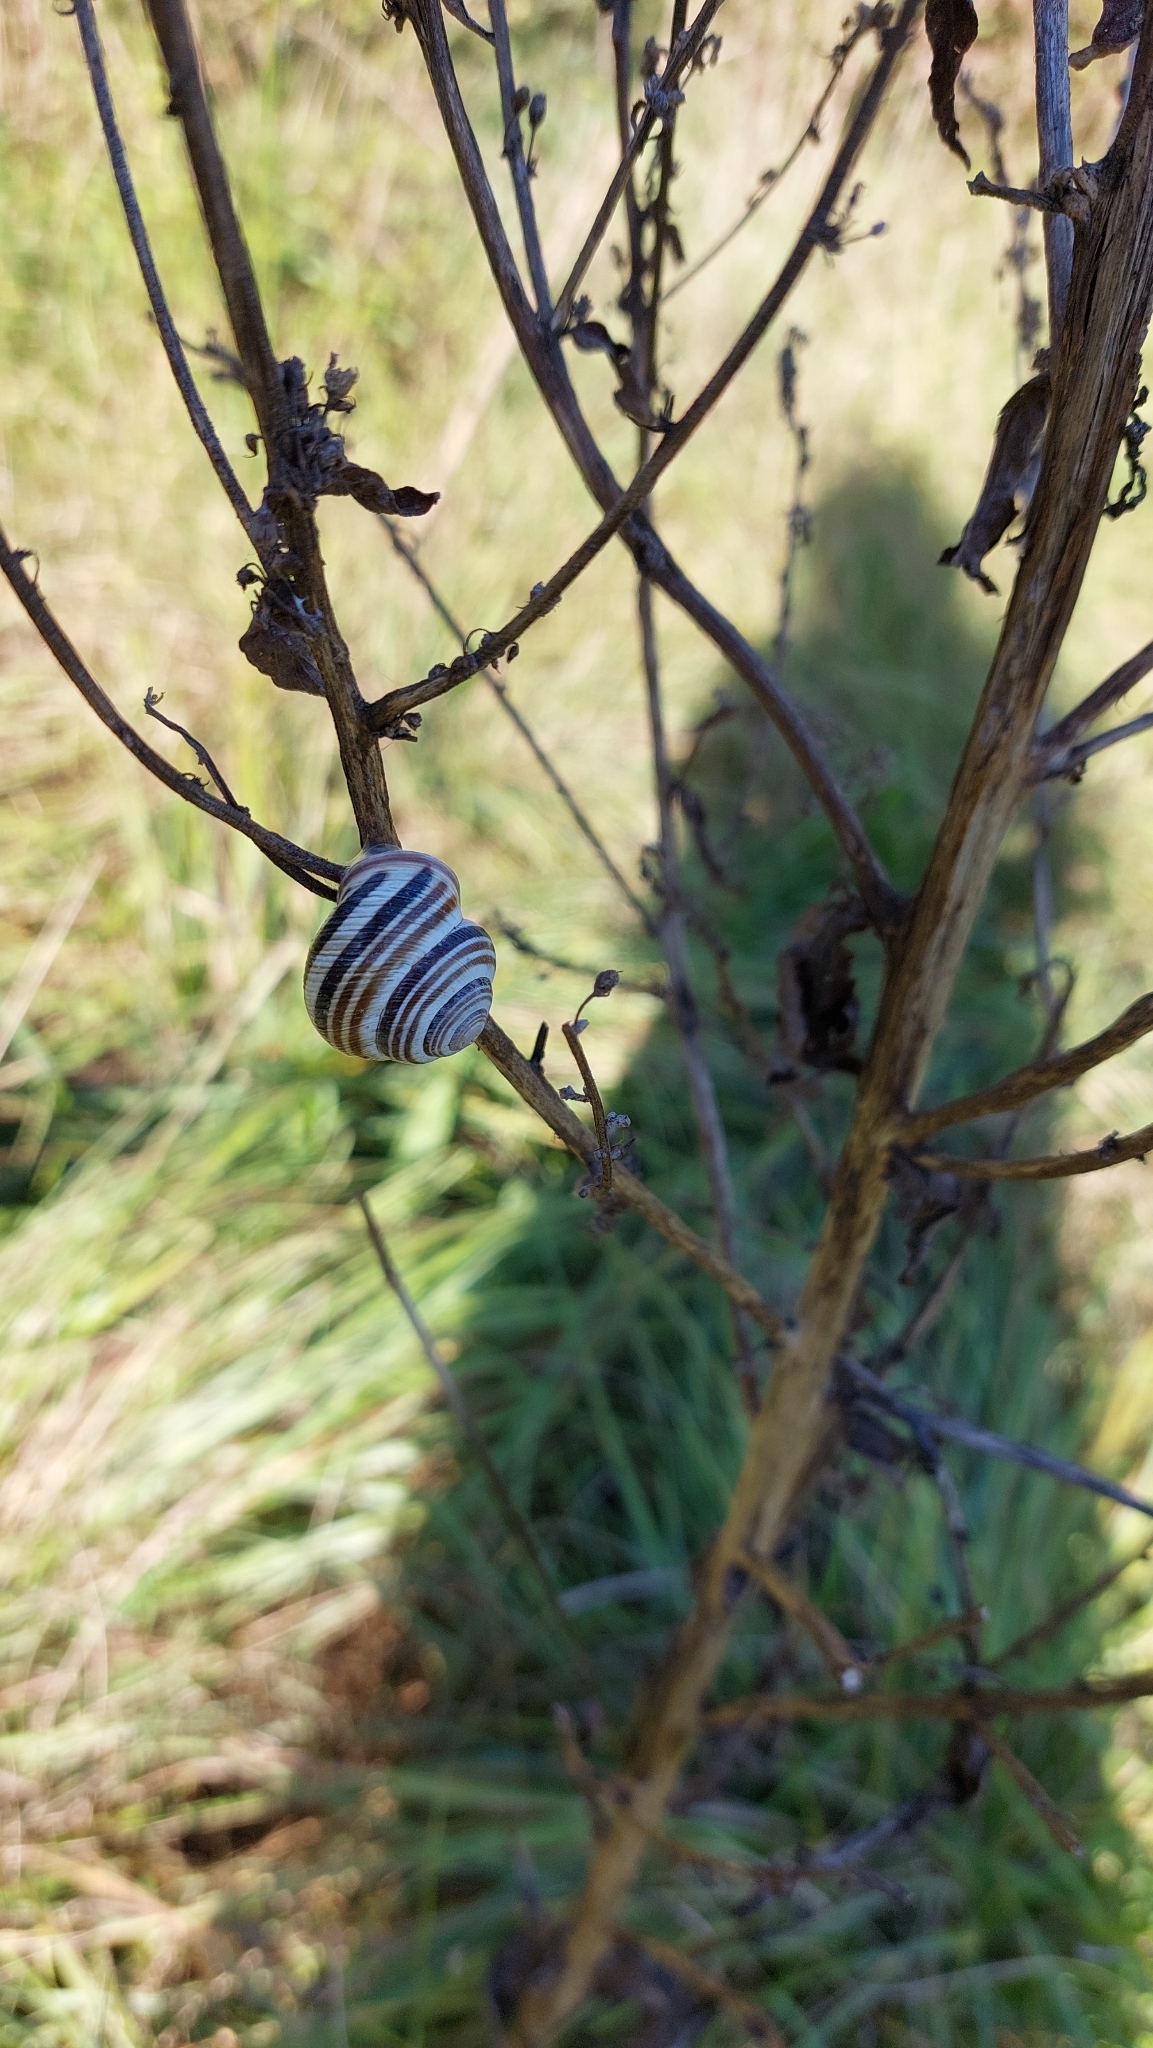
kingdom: Animalia
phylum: Mollusca
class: Gastropoda
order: Stylommatophora
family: Helicidae
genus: Caucasotachea
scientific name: Caucasotachea vindobonensis
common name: European helicid land snail
